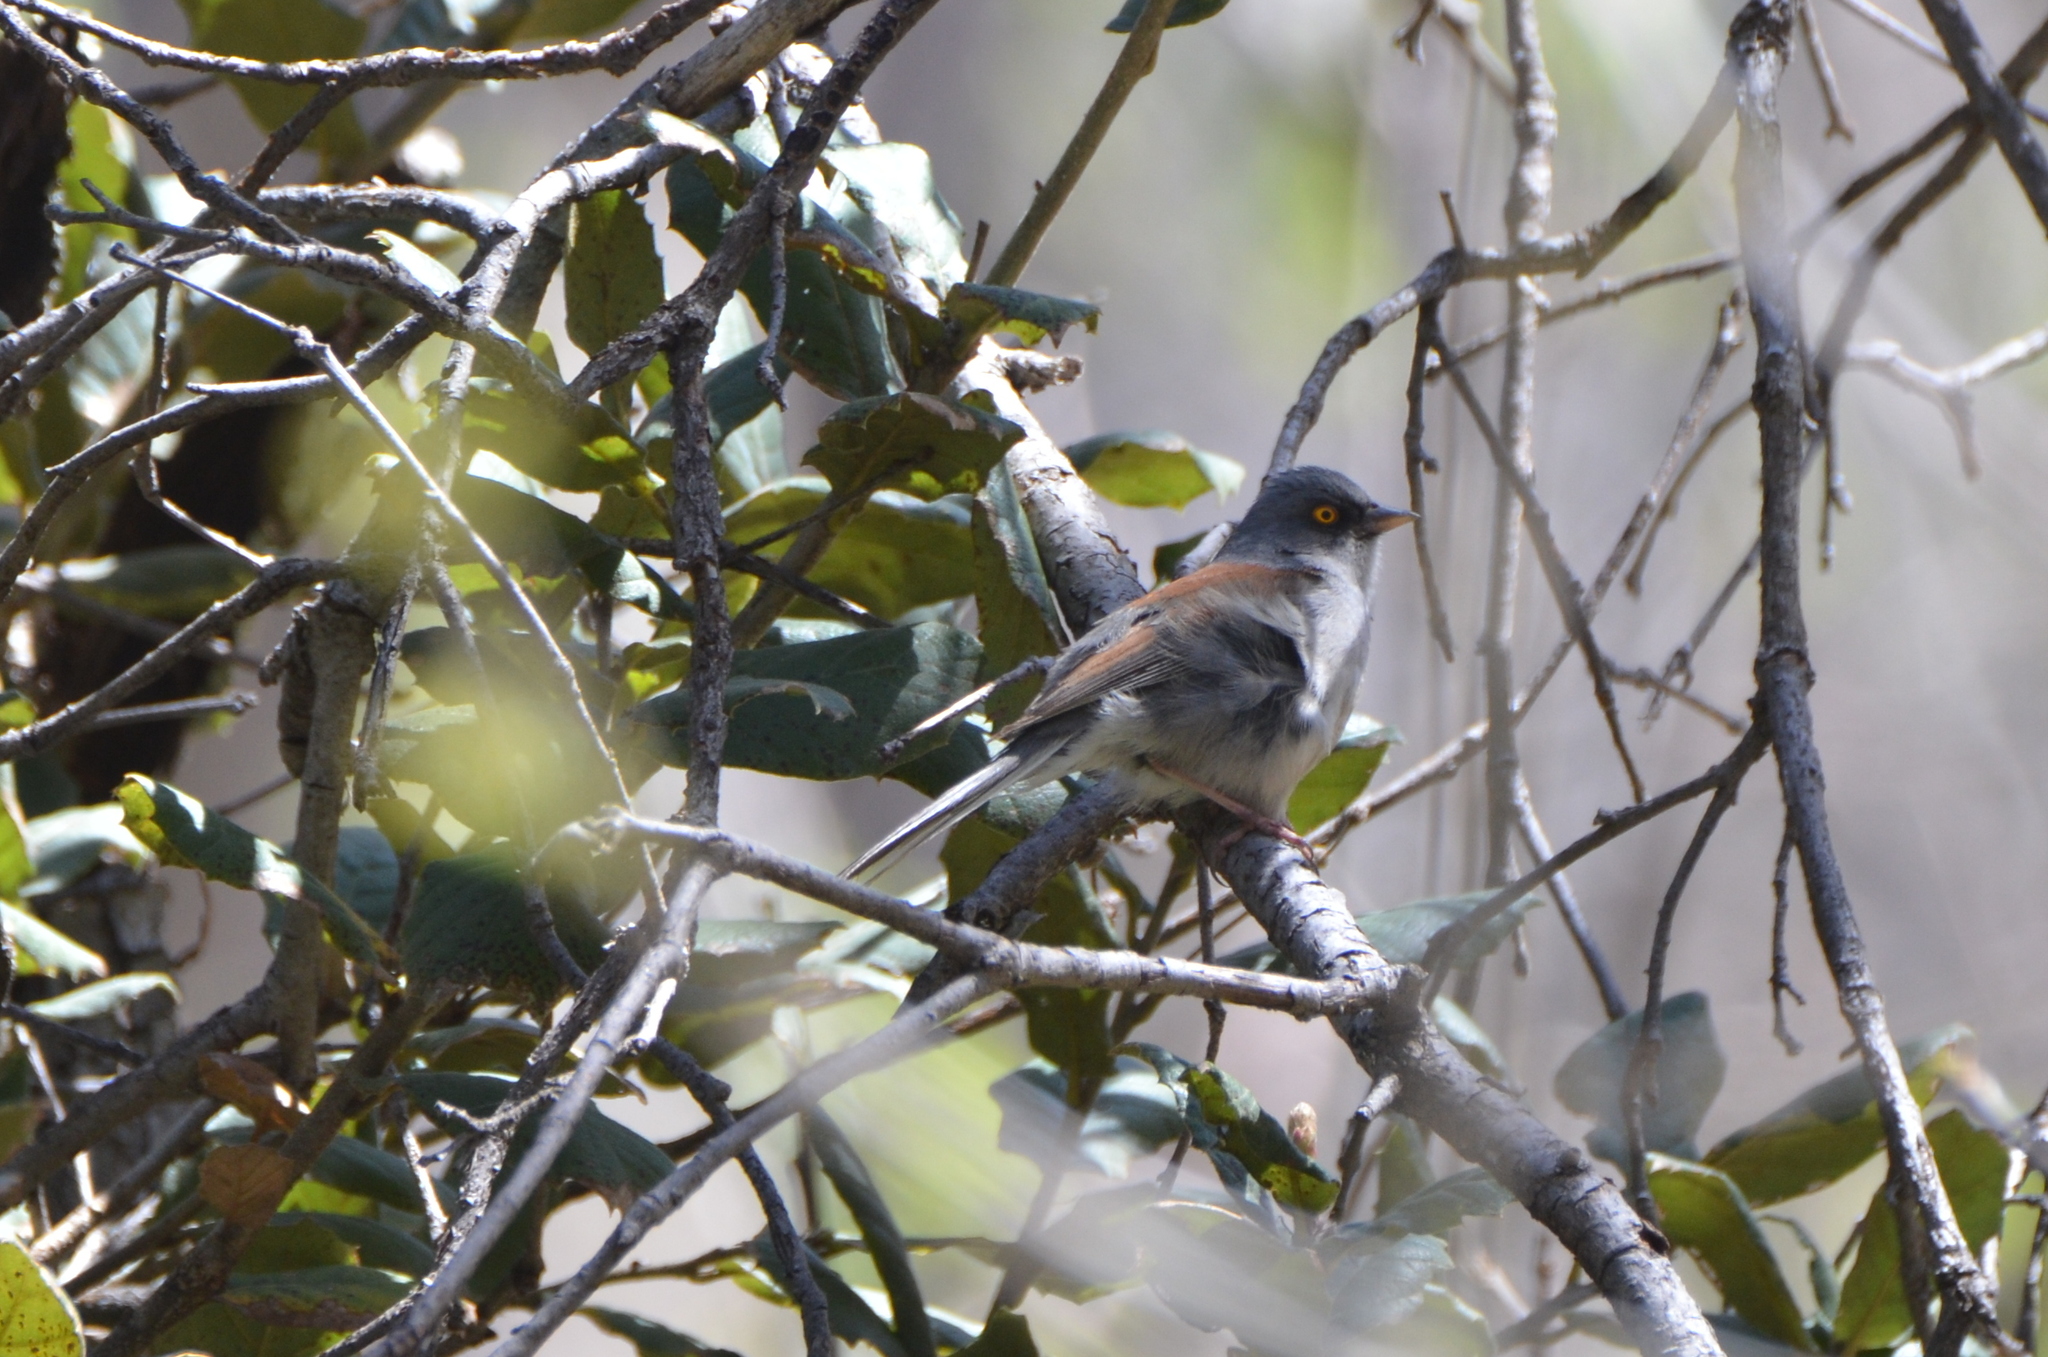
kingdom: Animalia
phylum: Chordata
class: Aves
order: Passeriformes
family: Passerellidae
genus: Junco
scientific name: Junco phaeonotus
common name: Yellow-eyed junco
